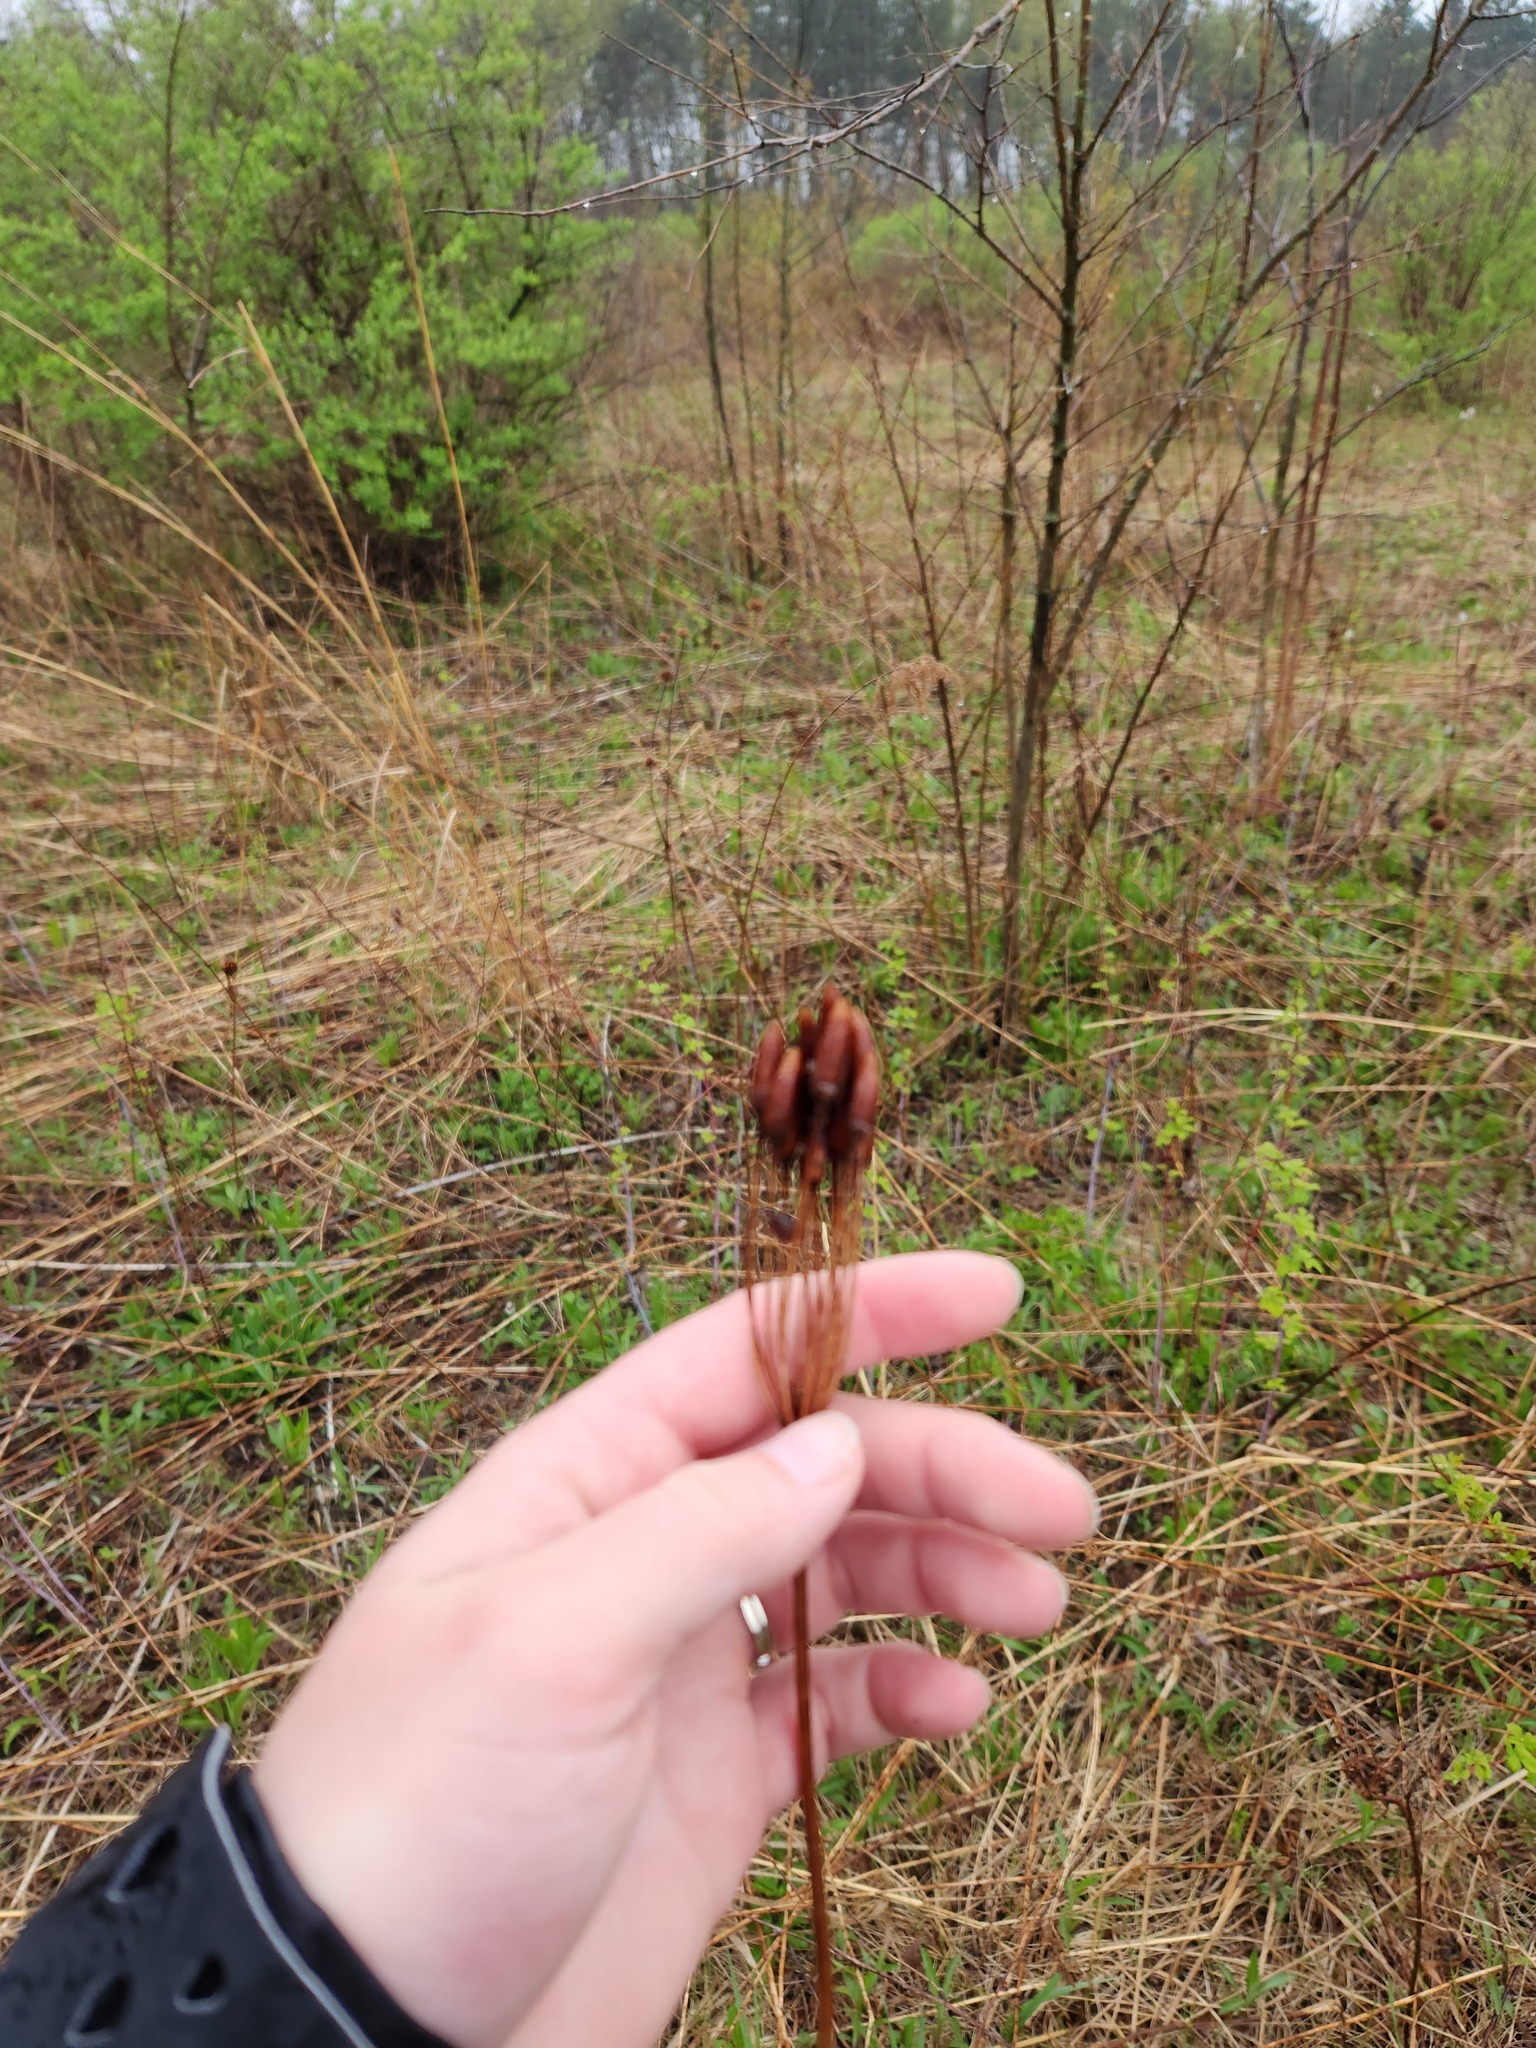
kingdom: Plantae
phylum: Tracheophyta
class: Magnoliopsida
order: Ericales
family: Primulaceae
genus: Dodecatheon
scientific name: Dodecatheon meadia
